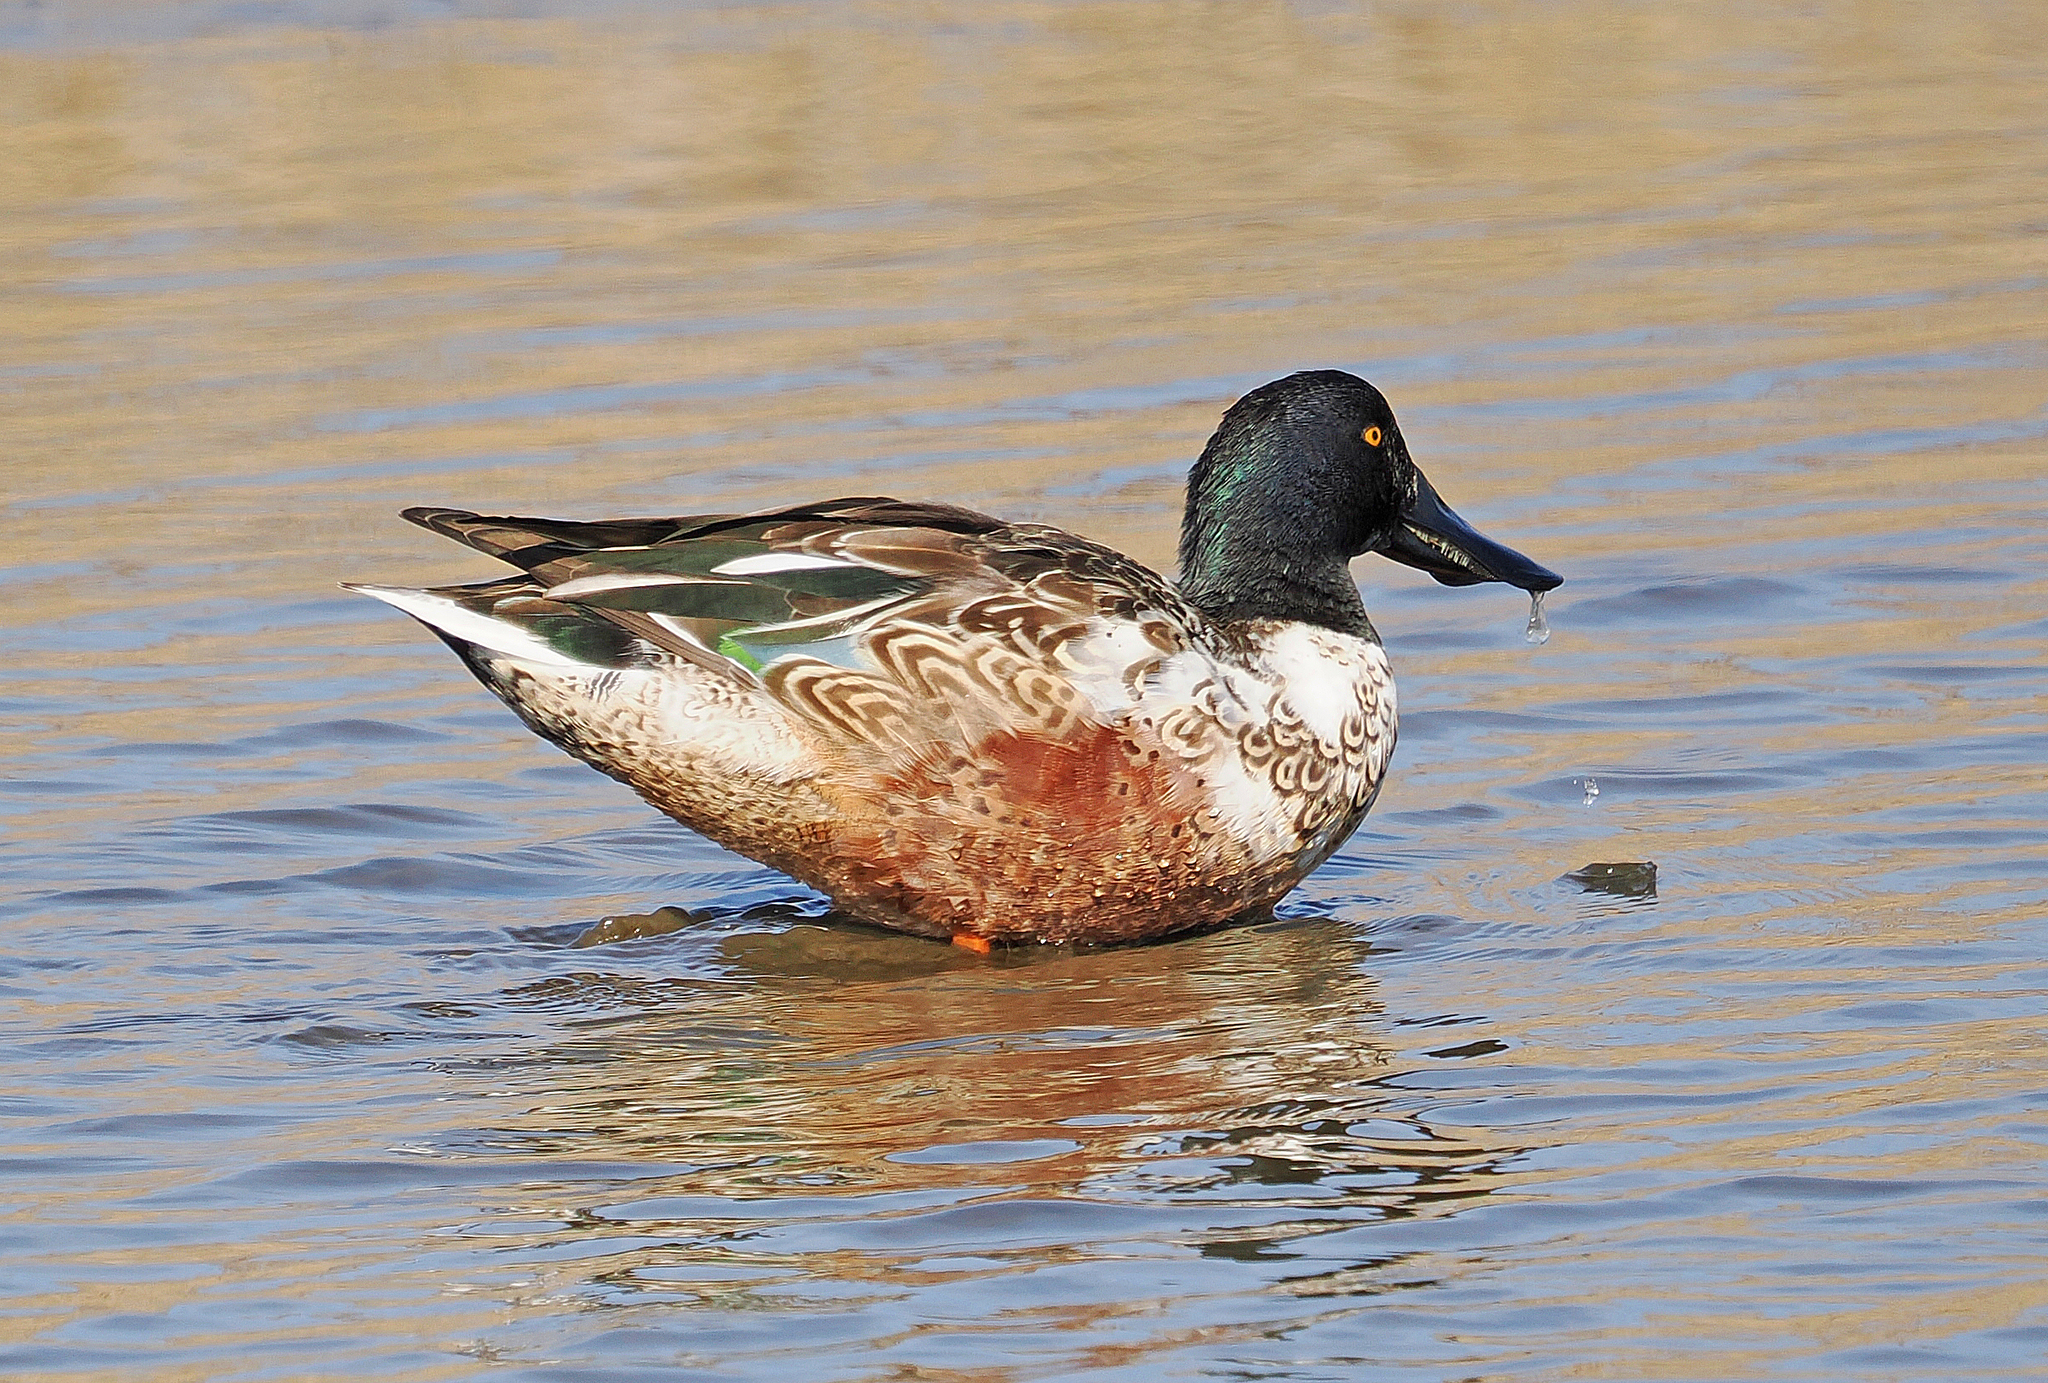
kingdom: Animalia
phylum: Chordata
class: Aves
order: Anseriformes
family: Anatidae
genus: Spatula
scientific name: Spatula clypeata
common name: Northern shoveler
